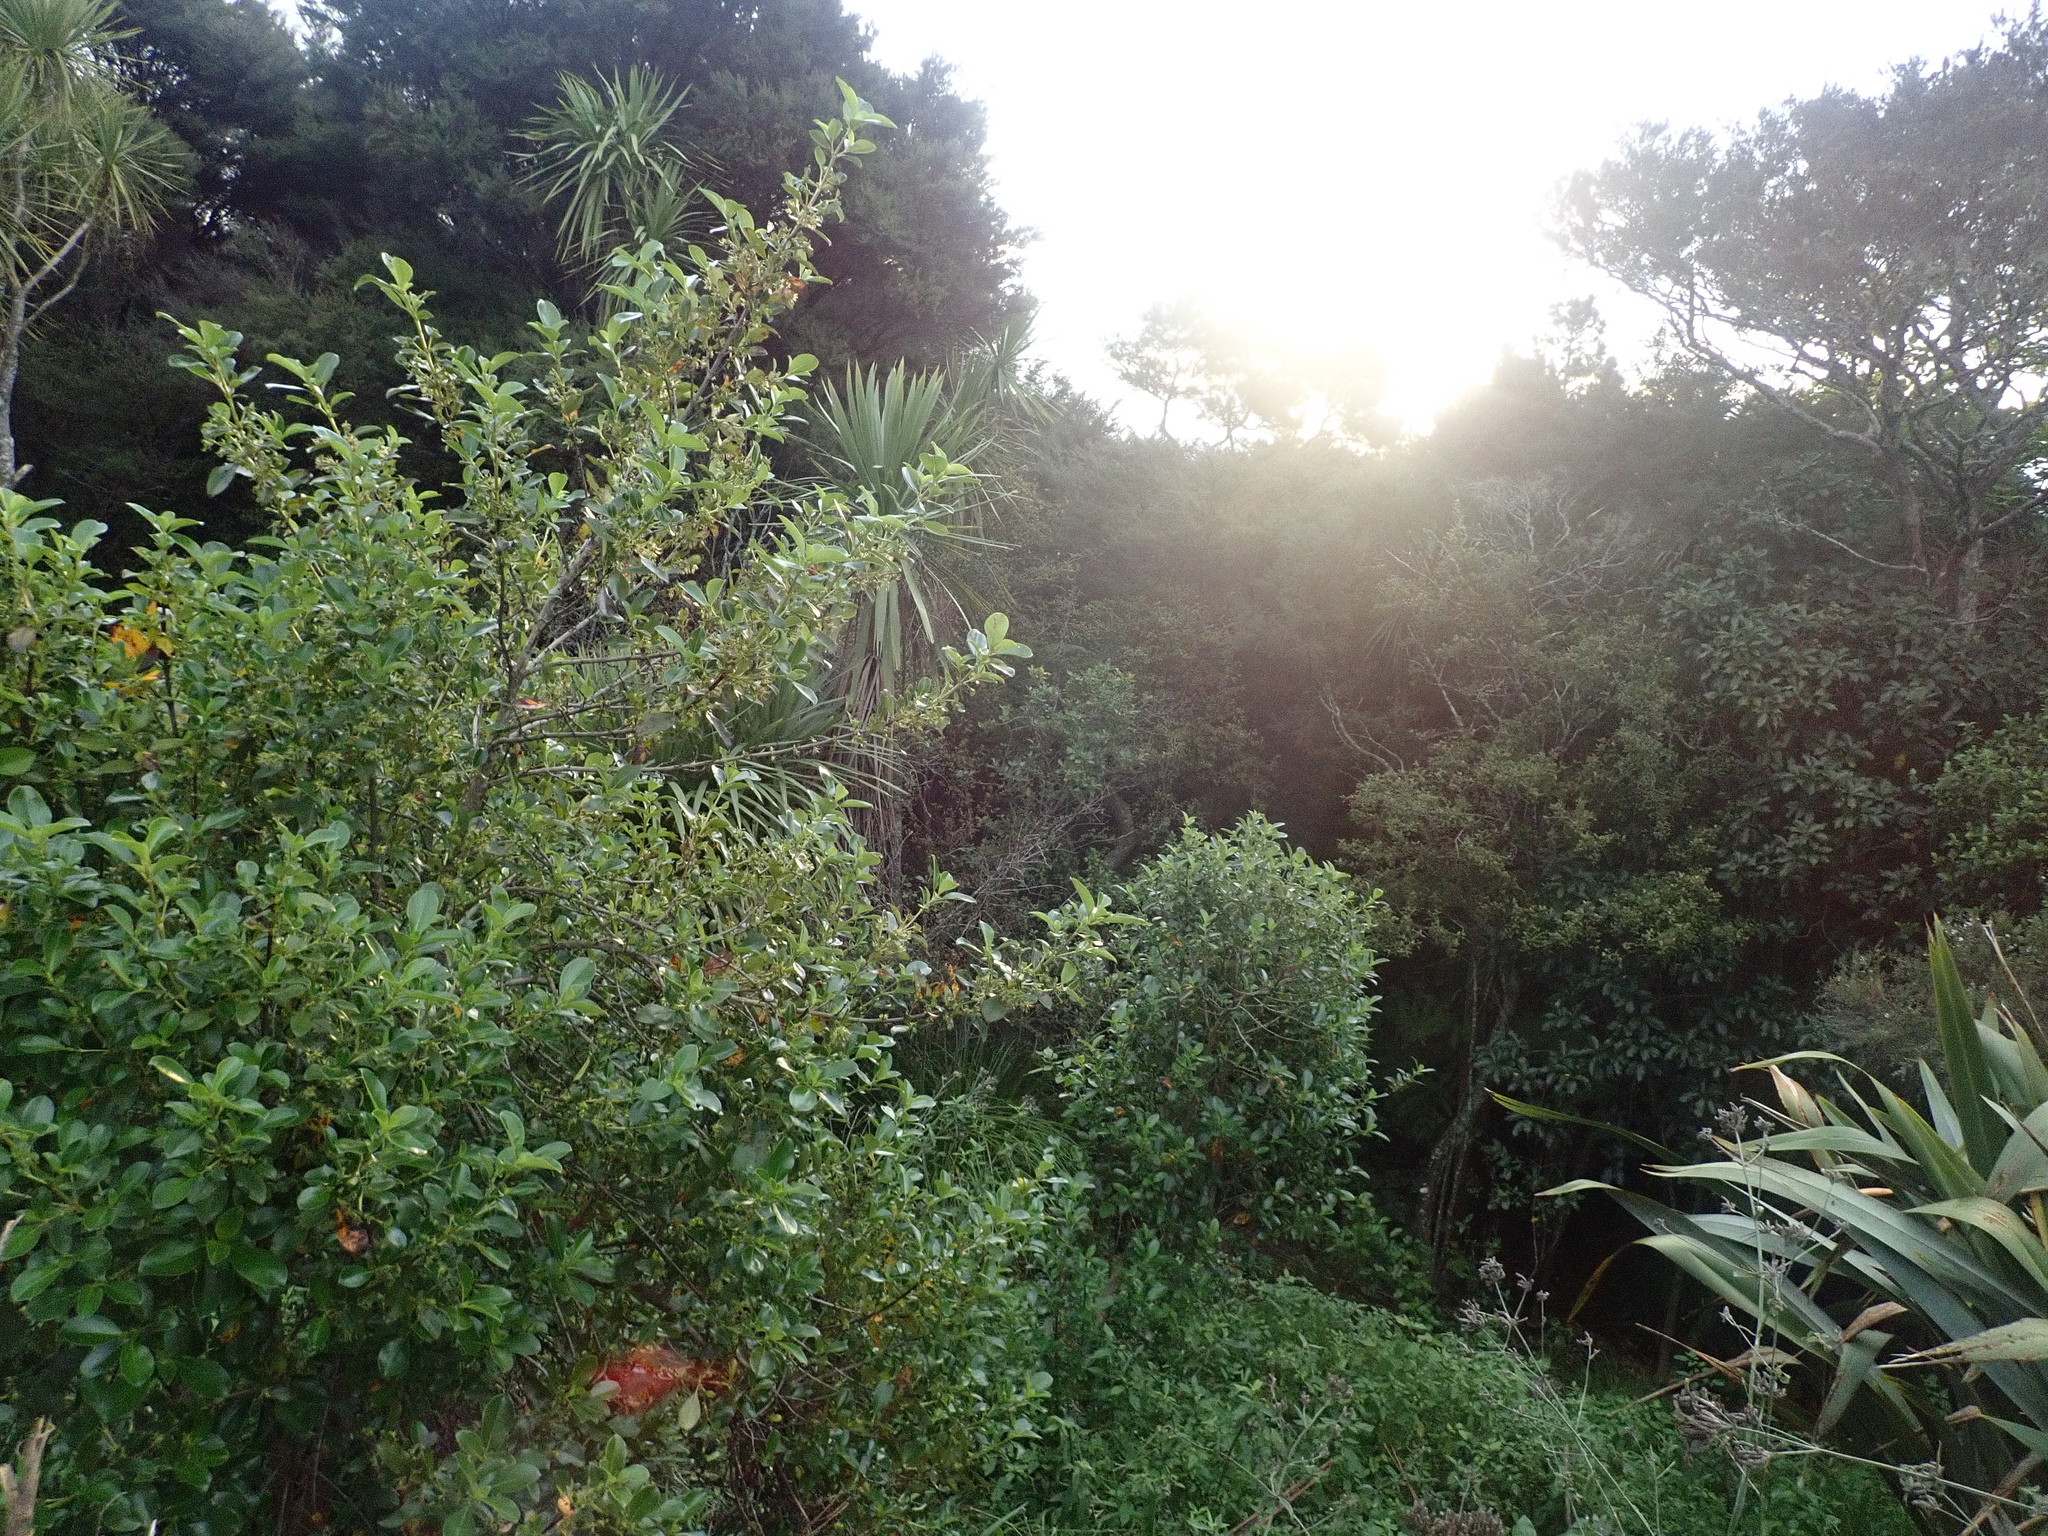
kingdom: Plantae
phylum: Tracheophyta
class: Magnoliopsida
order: Gentianales
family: Rubiaceae
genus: Coprosma
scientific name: Coprosma robusta
